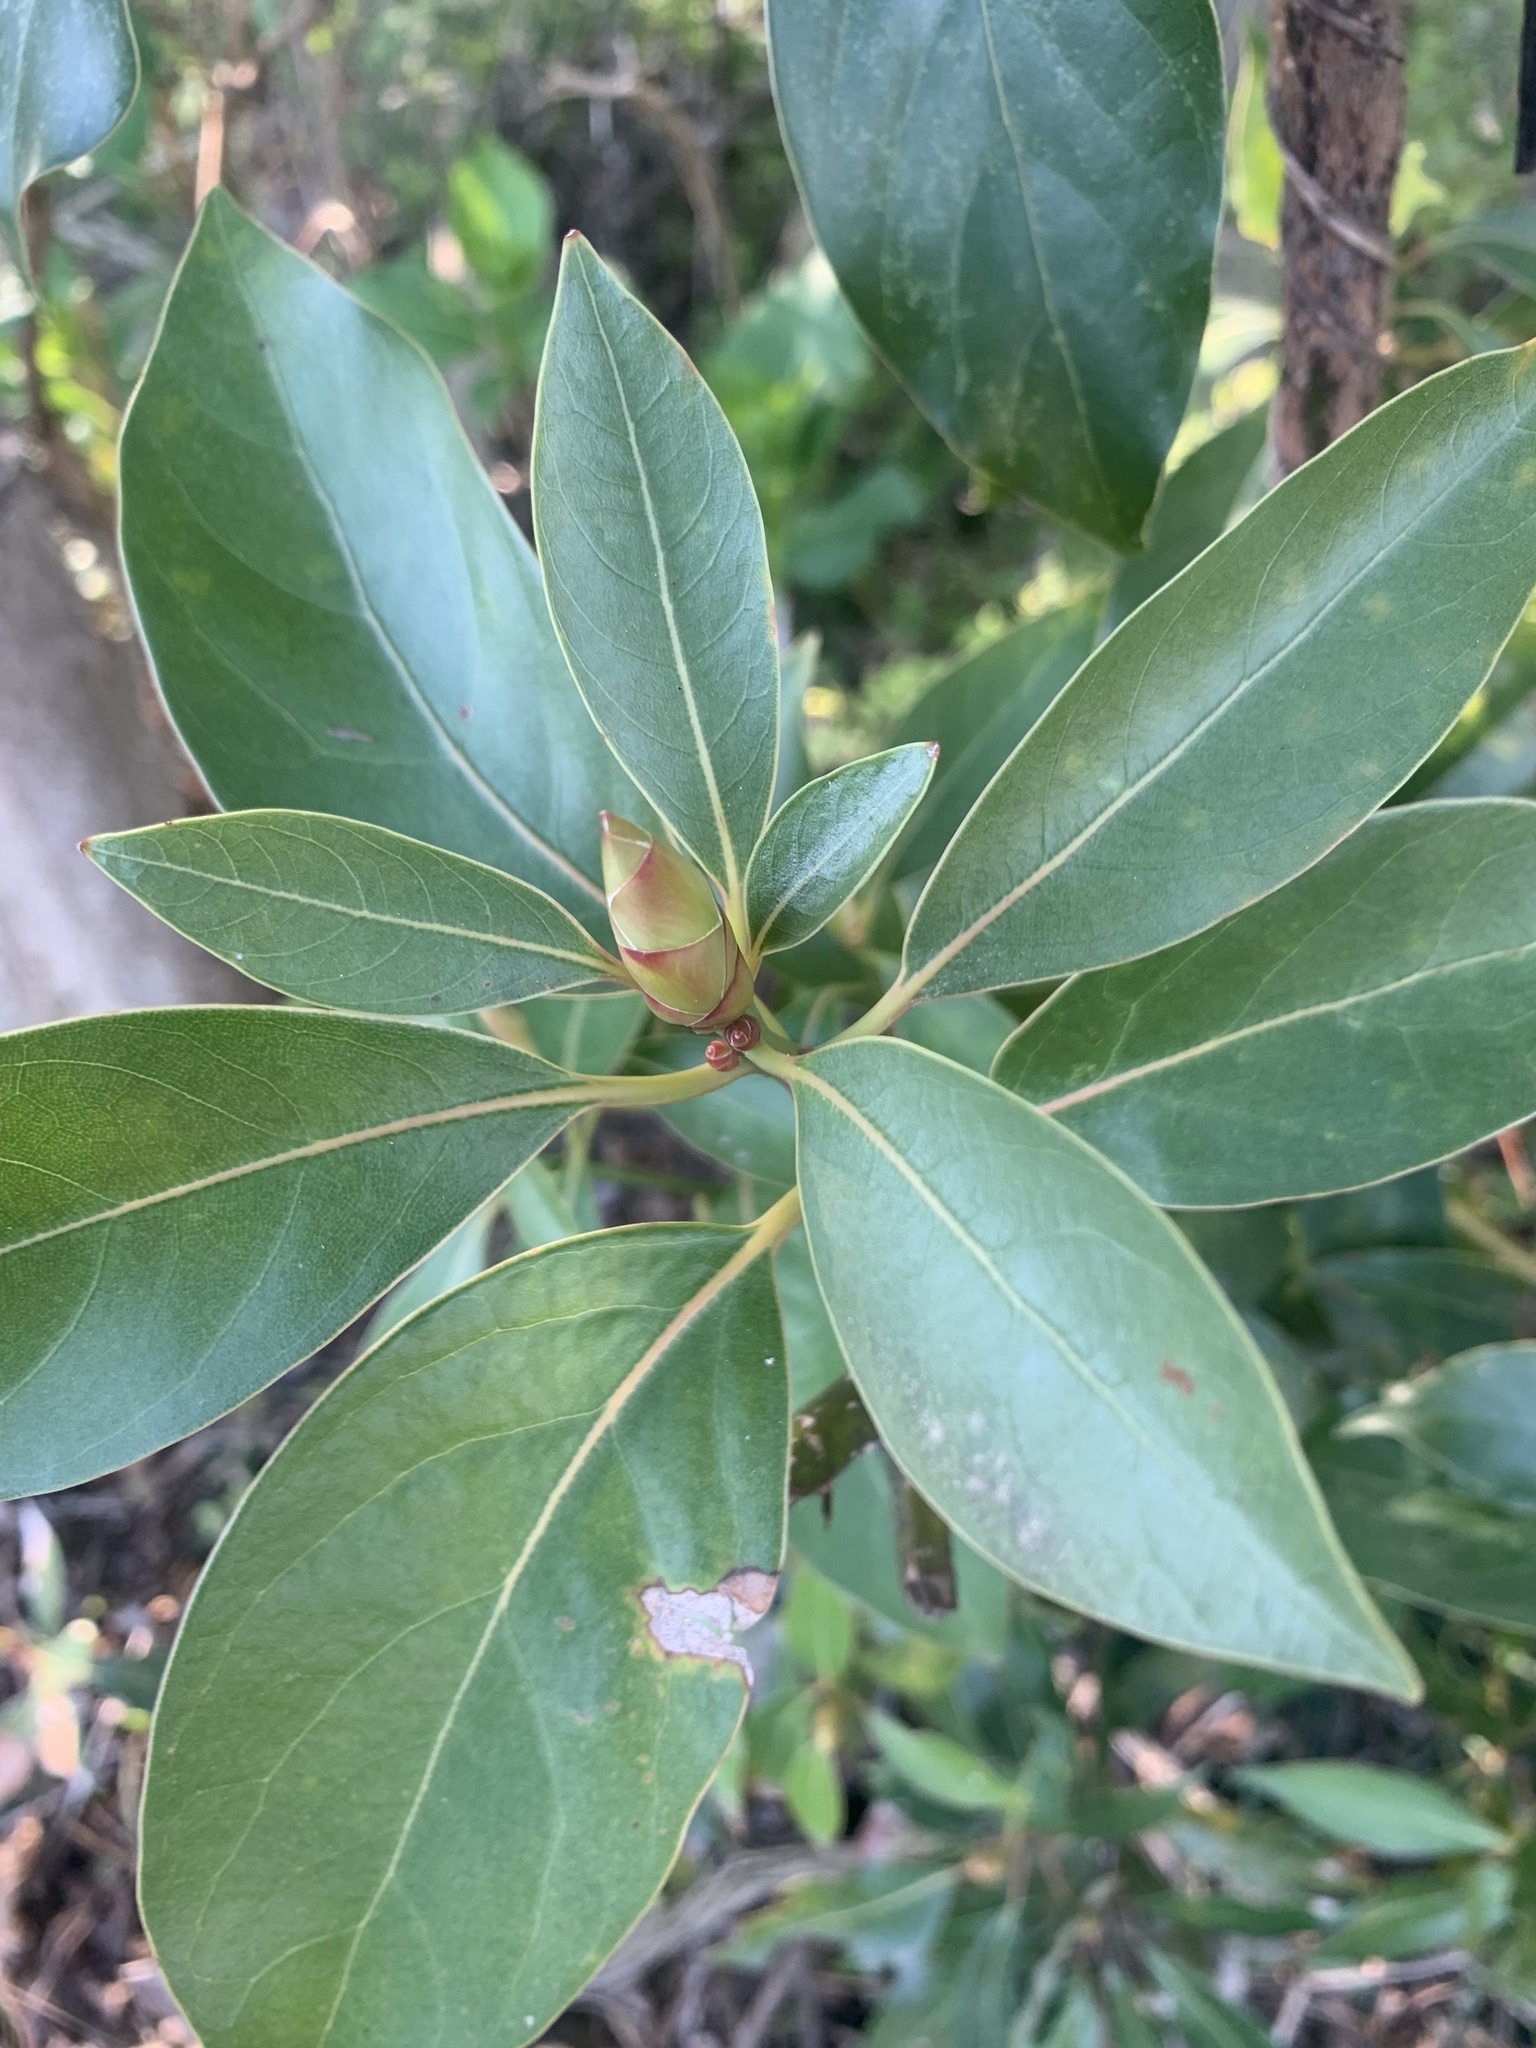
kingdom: Plantae
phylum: Tracheophyta
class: Magnoliopsida
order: Laurales
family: Lauraceae
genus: Machilus
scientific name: Machilus thunbergii
